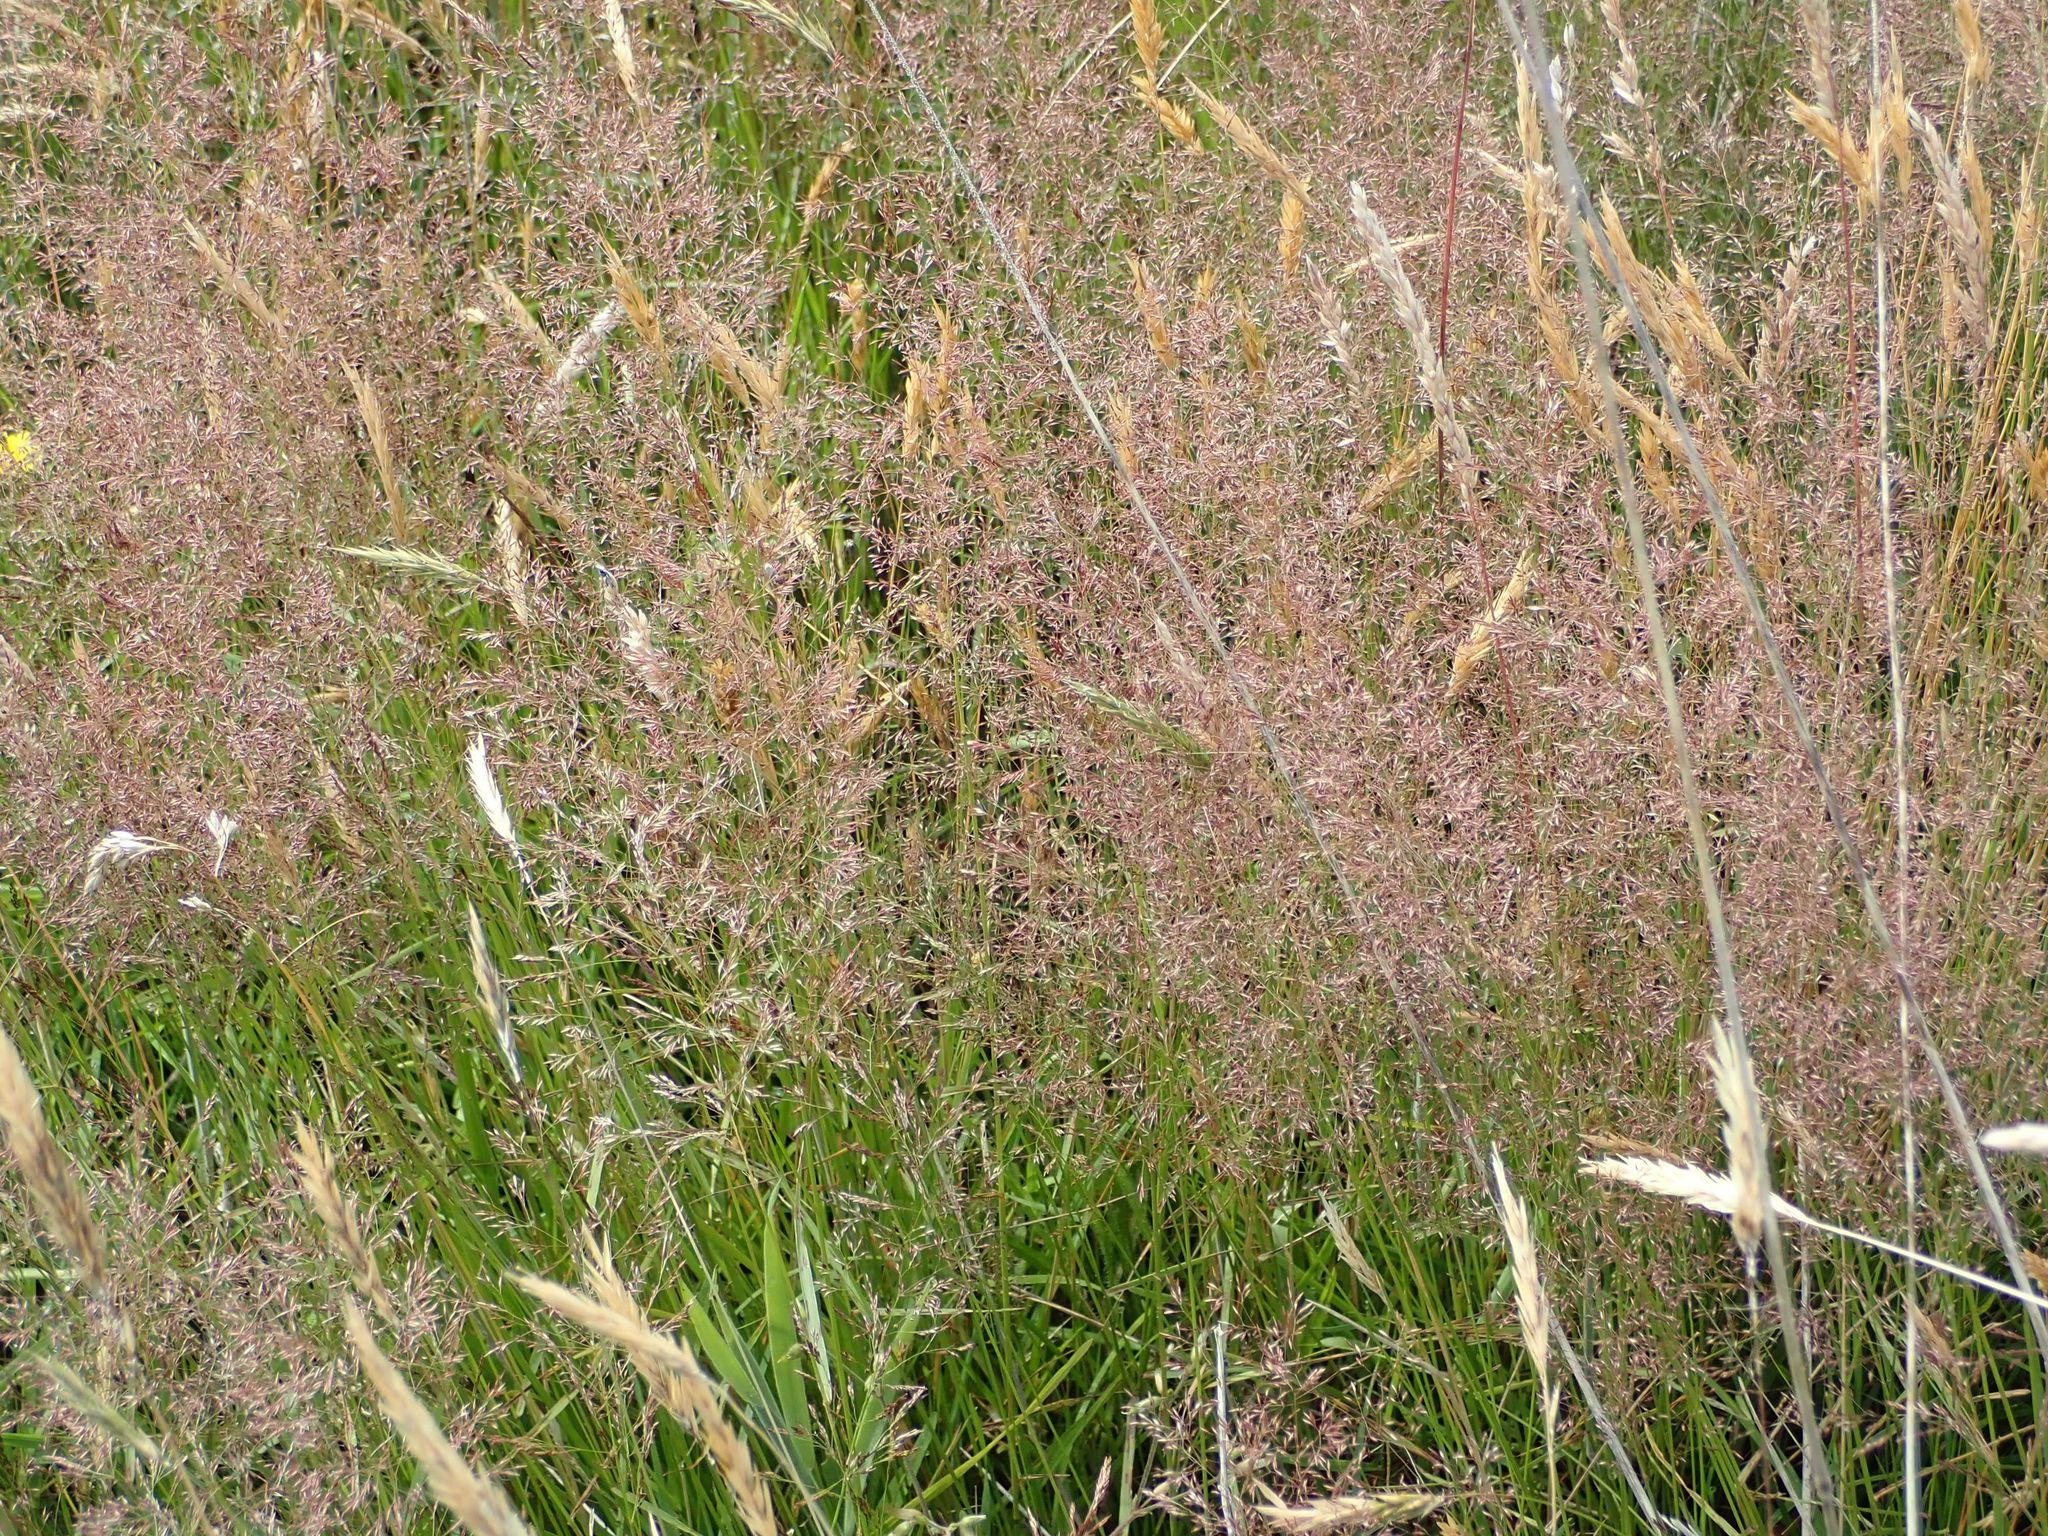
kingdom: Plantae
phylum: Tracheophyta
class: Liliopsida
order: Poales
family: Poaceae
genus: Agrostis
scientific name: Agrostis capillaris
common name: Colonial bentgrass
